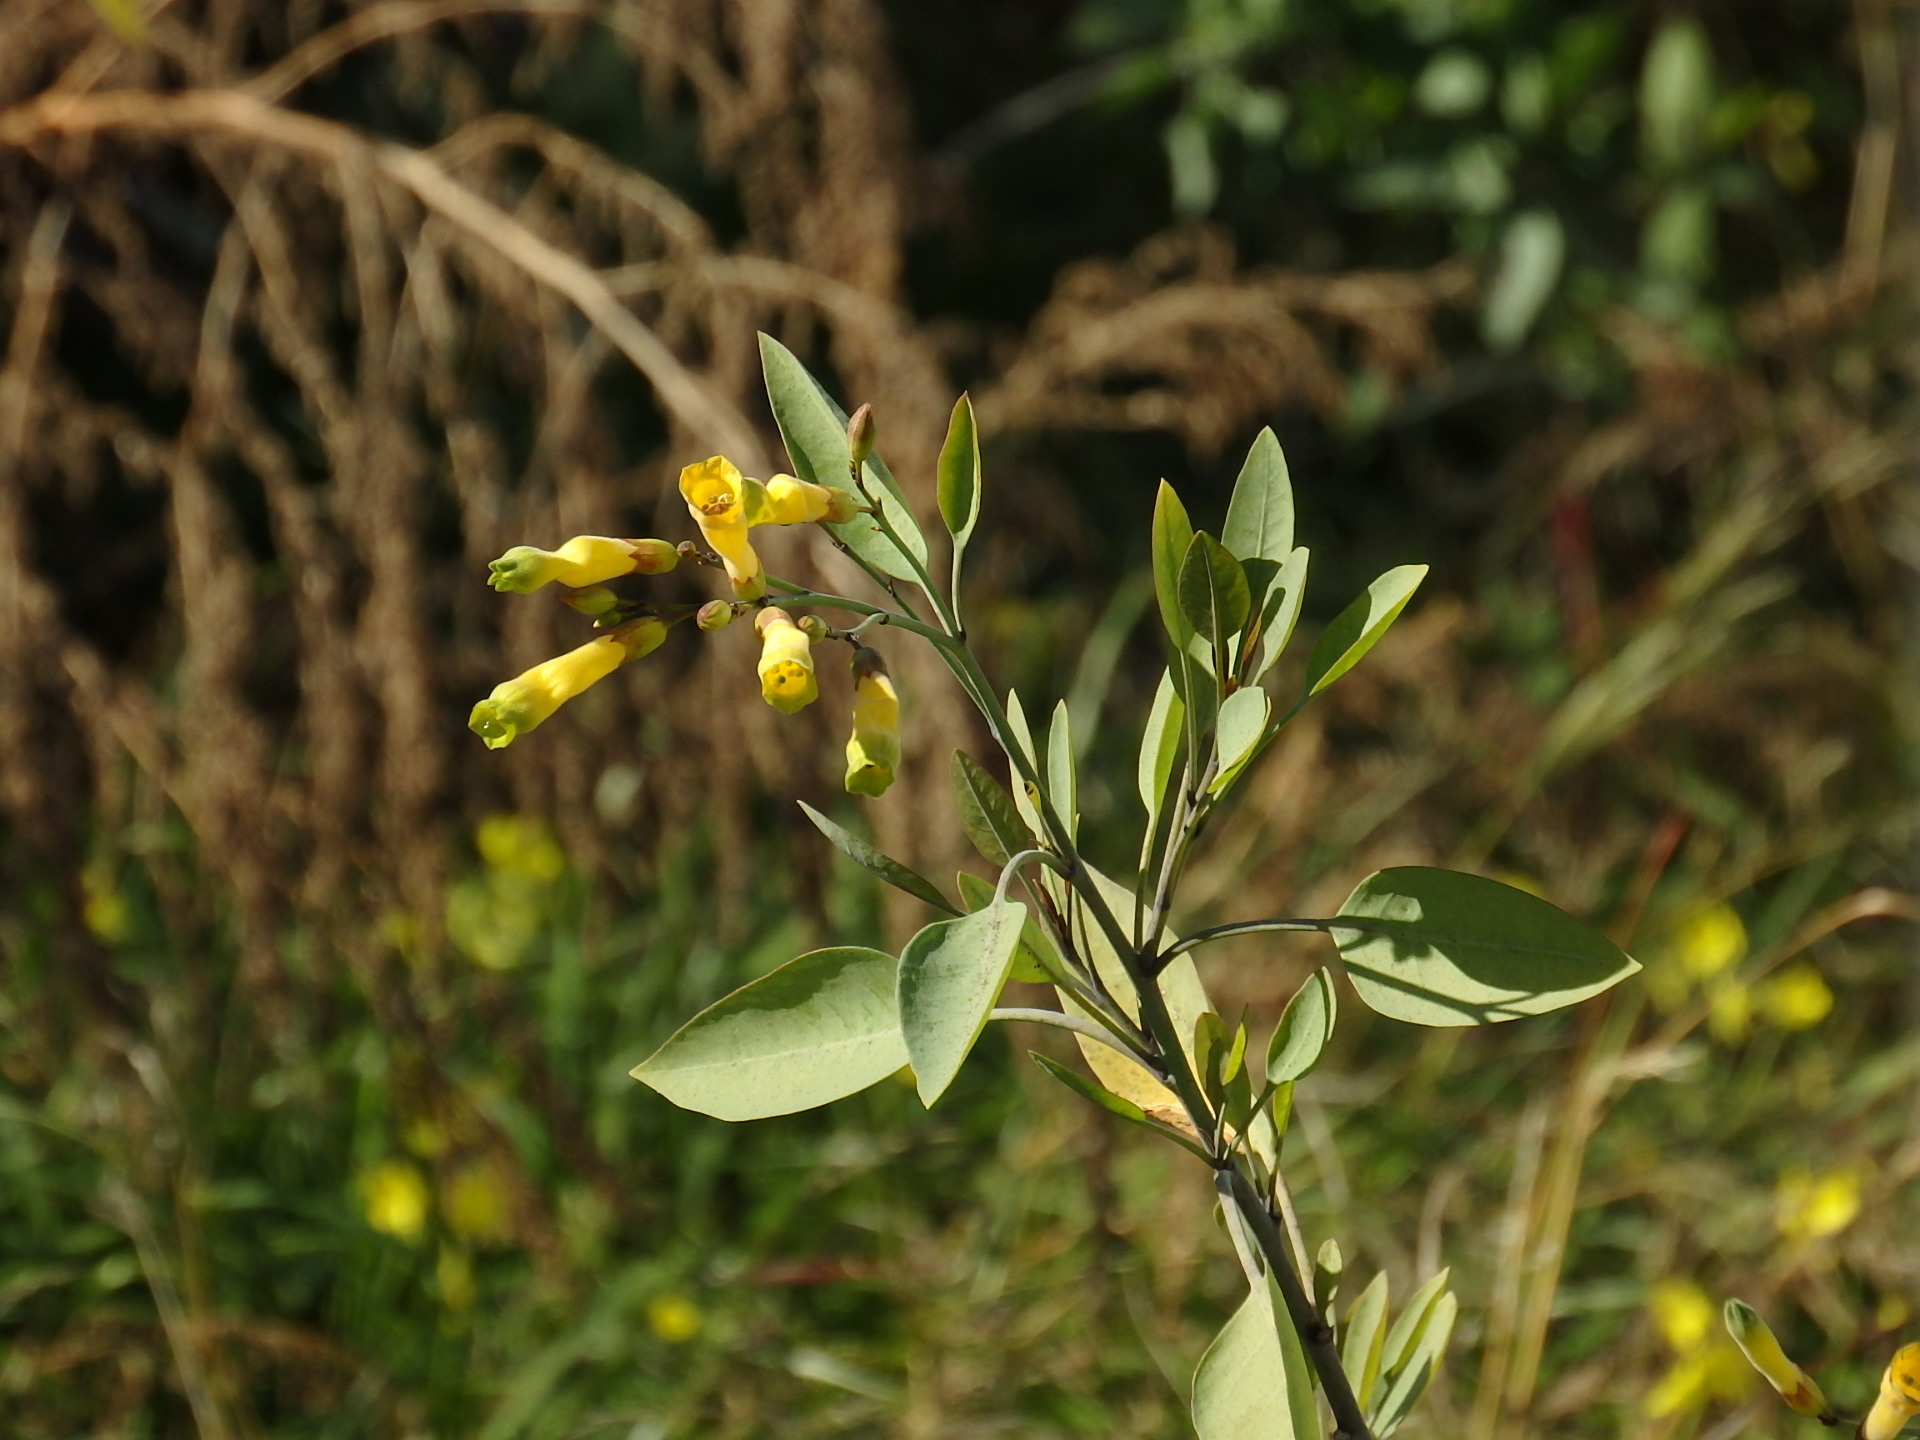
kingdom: Plantae
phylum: Tracheophyta
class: Magnoliopsida
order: Solanales
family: Solanaceae
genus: Nicotiana
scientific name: Nicotiana glauca
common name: Tree tobacco
